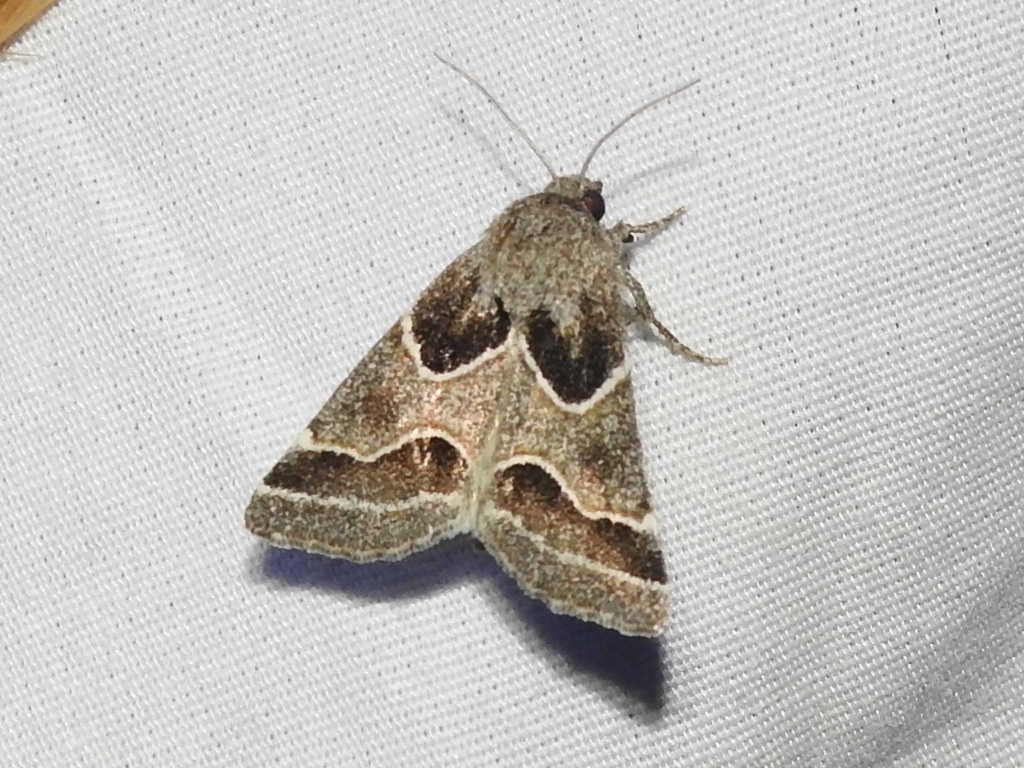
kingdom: Animalia
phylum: Arthropoda
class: Insecta
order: Lepidoptera
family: Noctuidae
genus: Schinia
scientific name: Schinia rivulosa
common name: Scarce meal-moth
